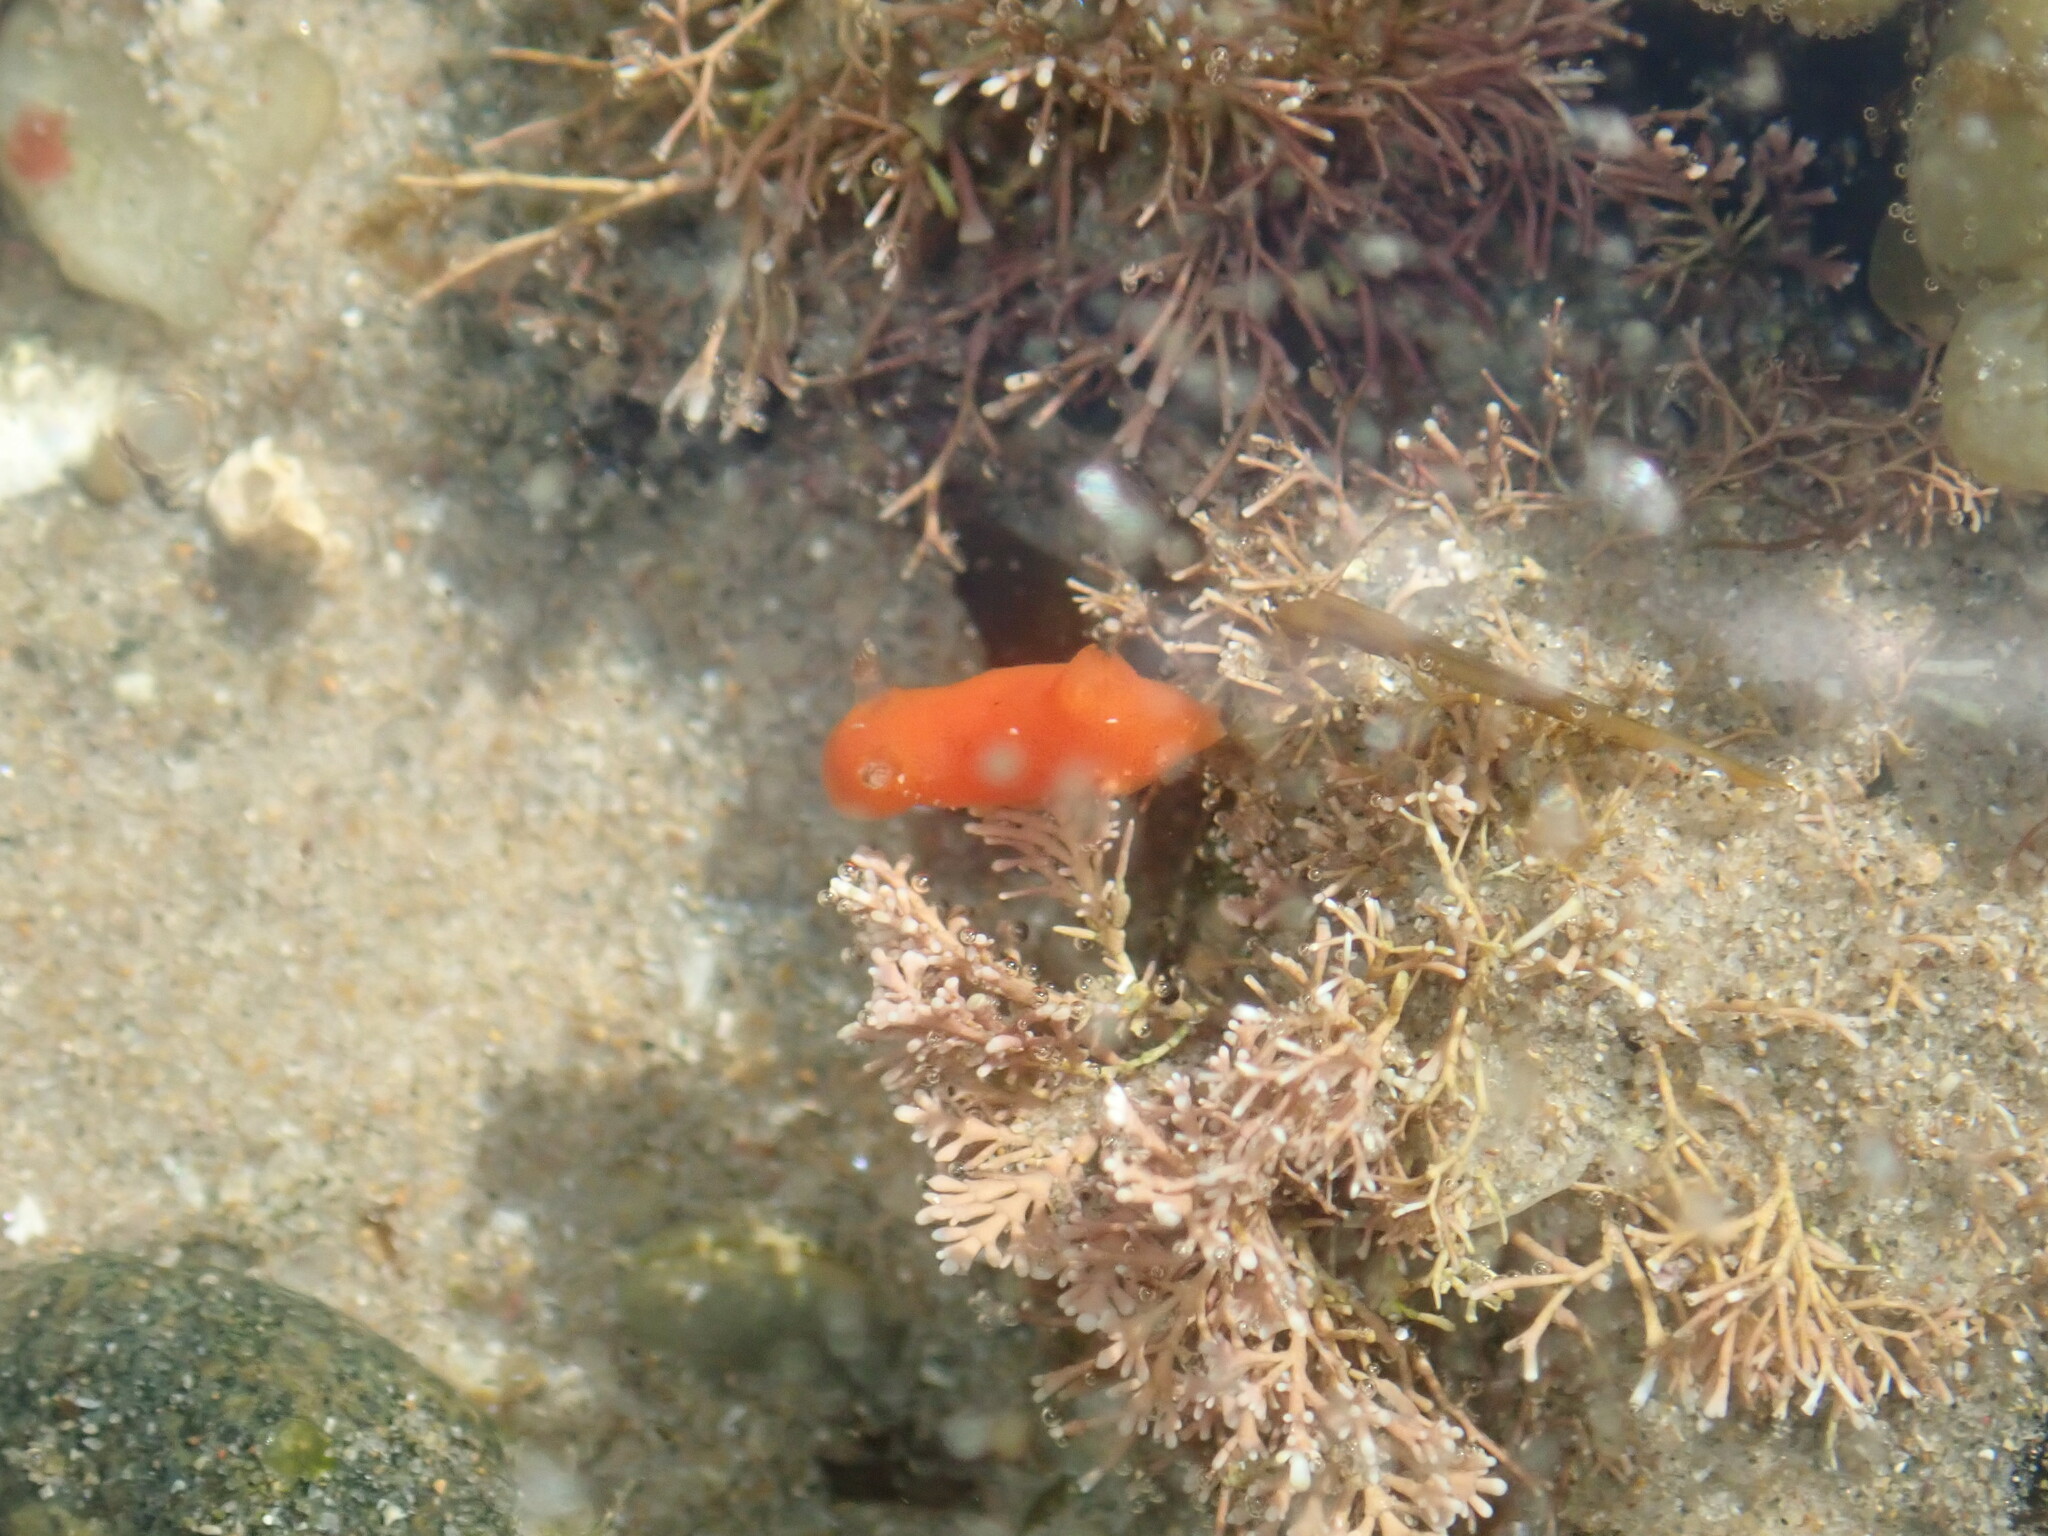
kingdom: Animalia
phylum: Mollusca
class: Gastropoda
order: Nudibranchia
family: Discodorididae
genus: Rostanga
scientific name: Rostanga arbutus
